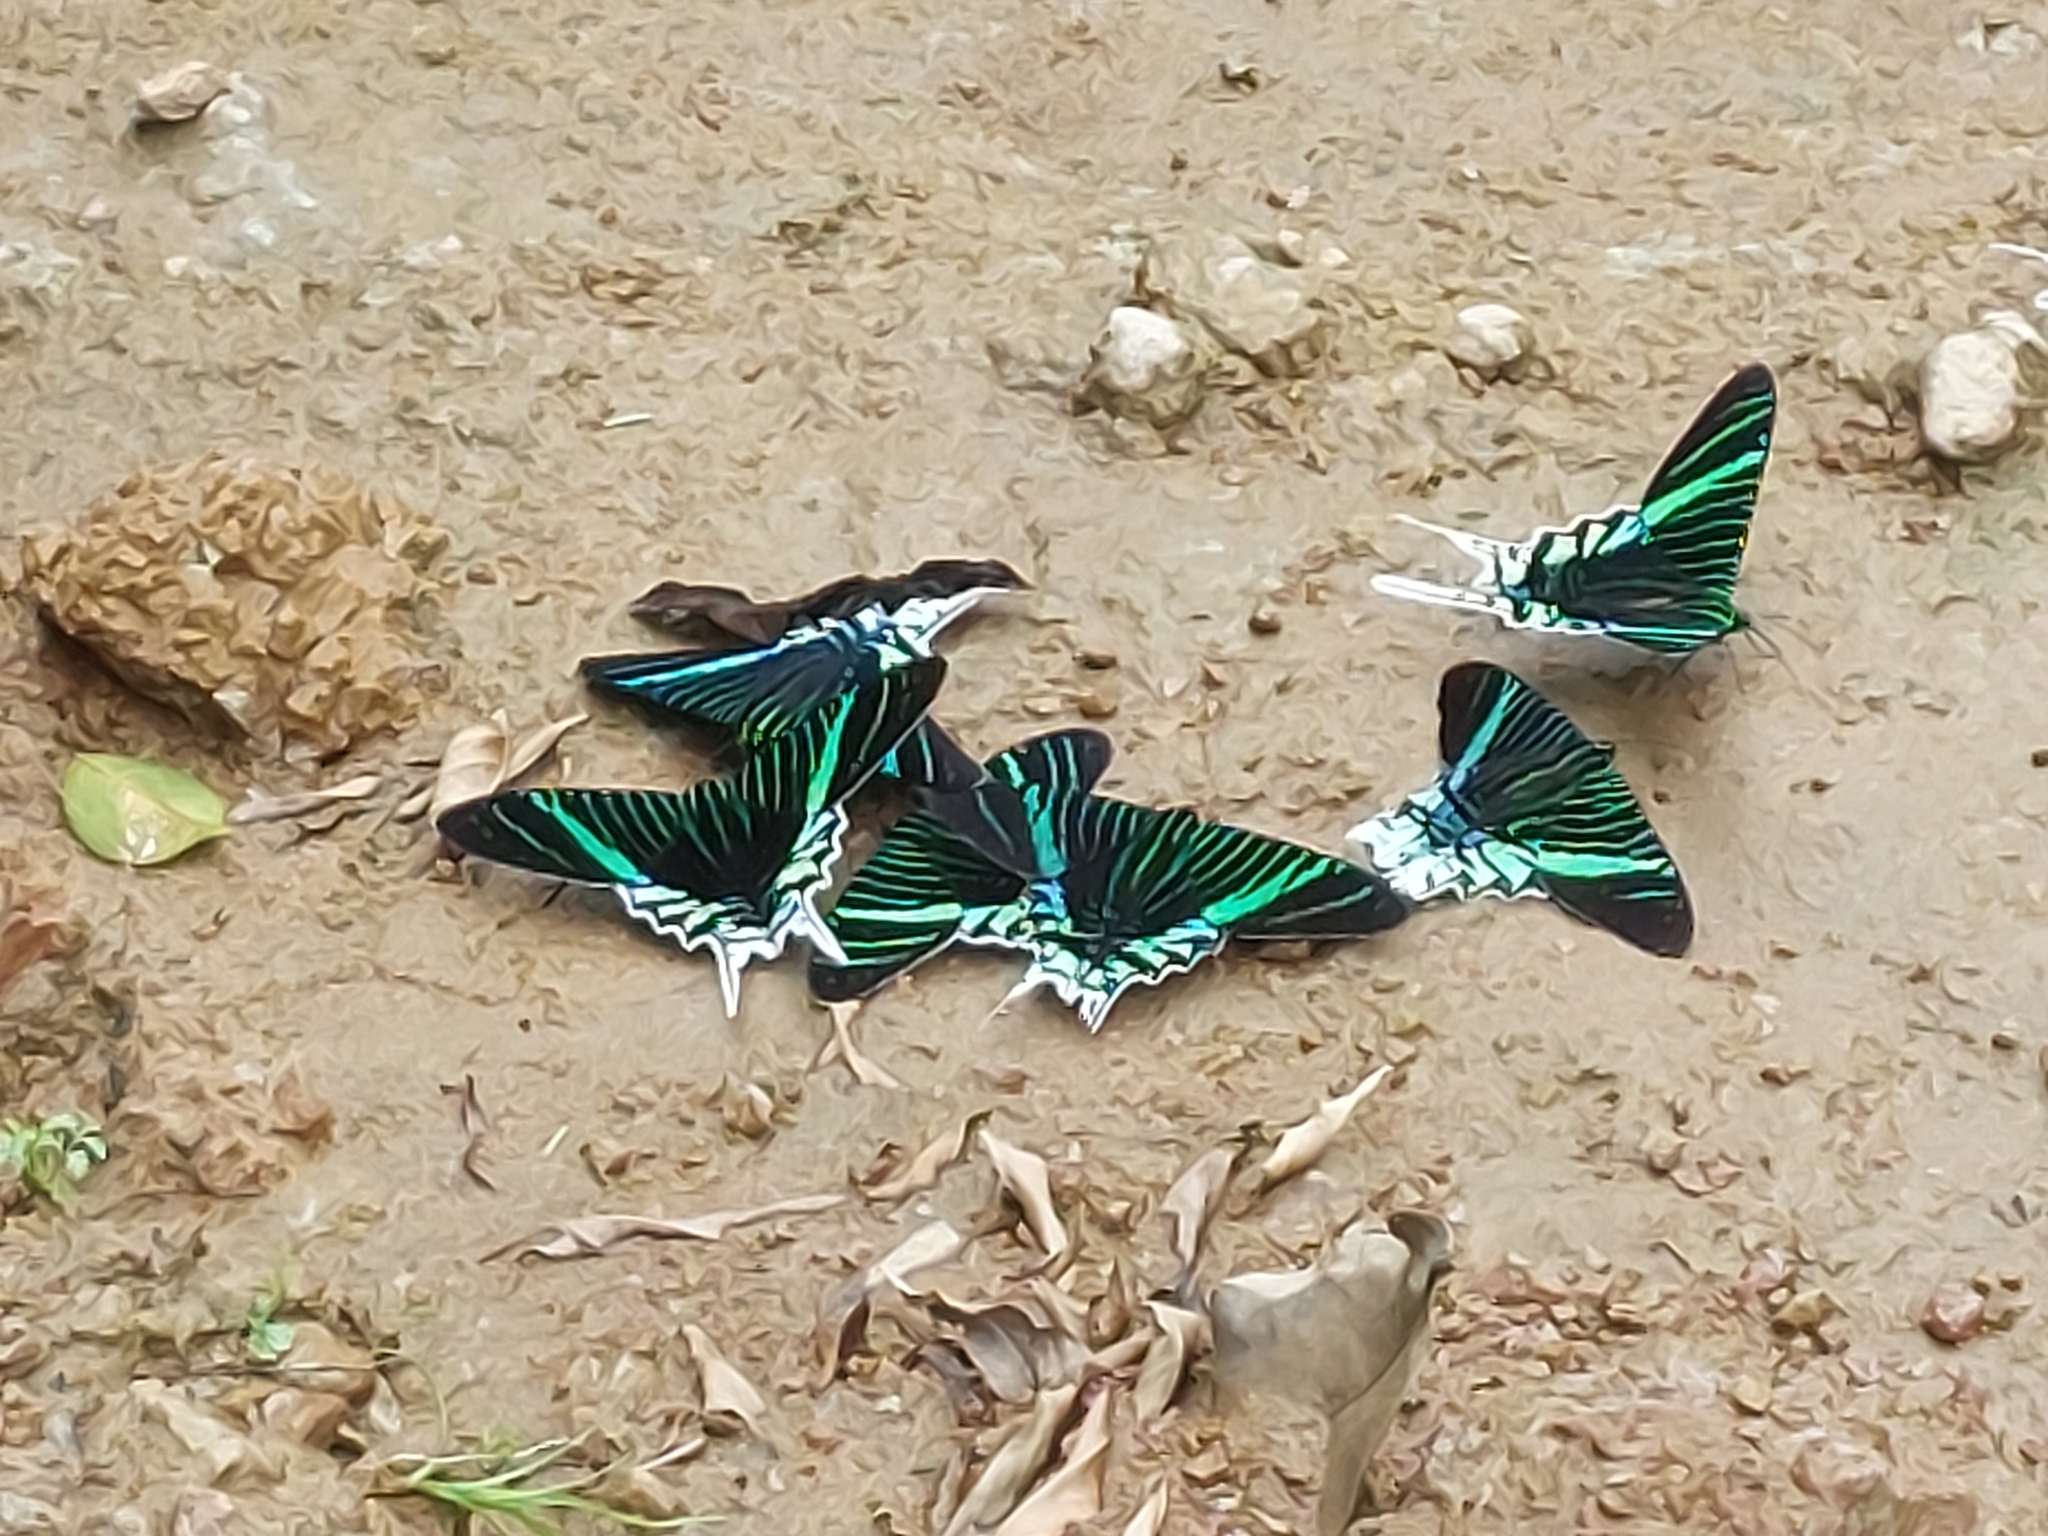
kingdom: Animalia
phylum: Arthropoda
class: Insecta
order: Lepidoptera
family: Uraniidae
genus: Urania
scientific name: Urania leilus
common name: Peacock moth
